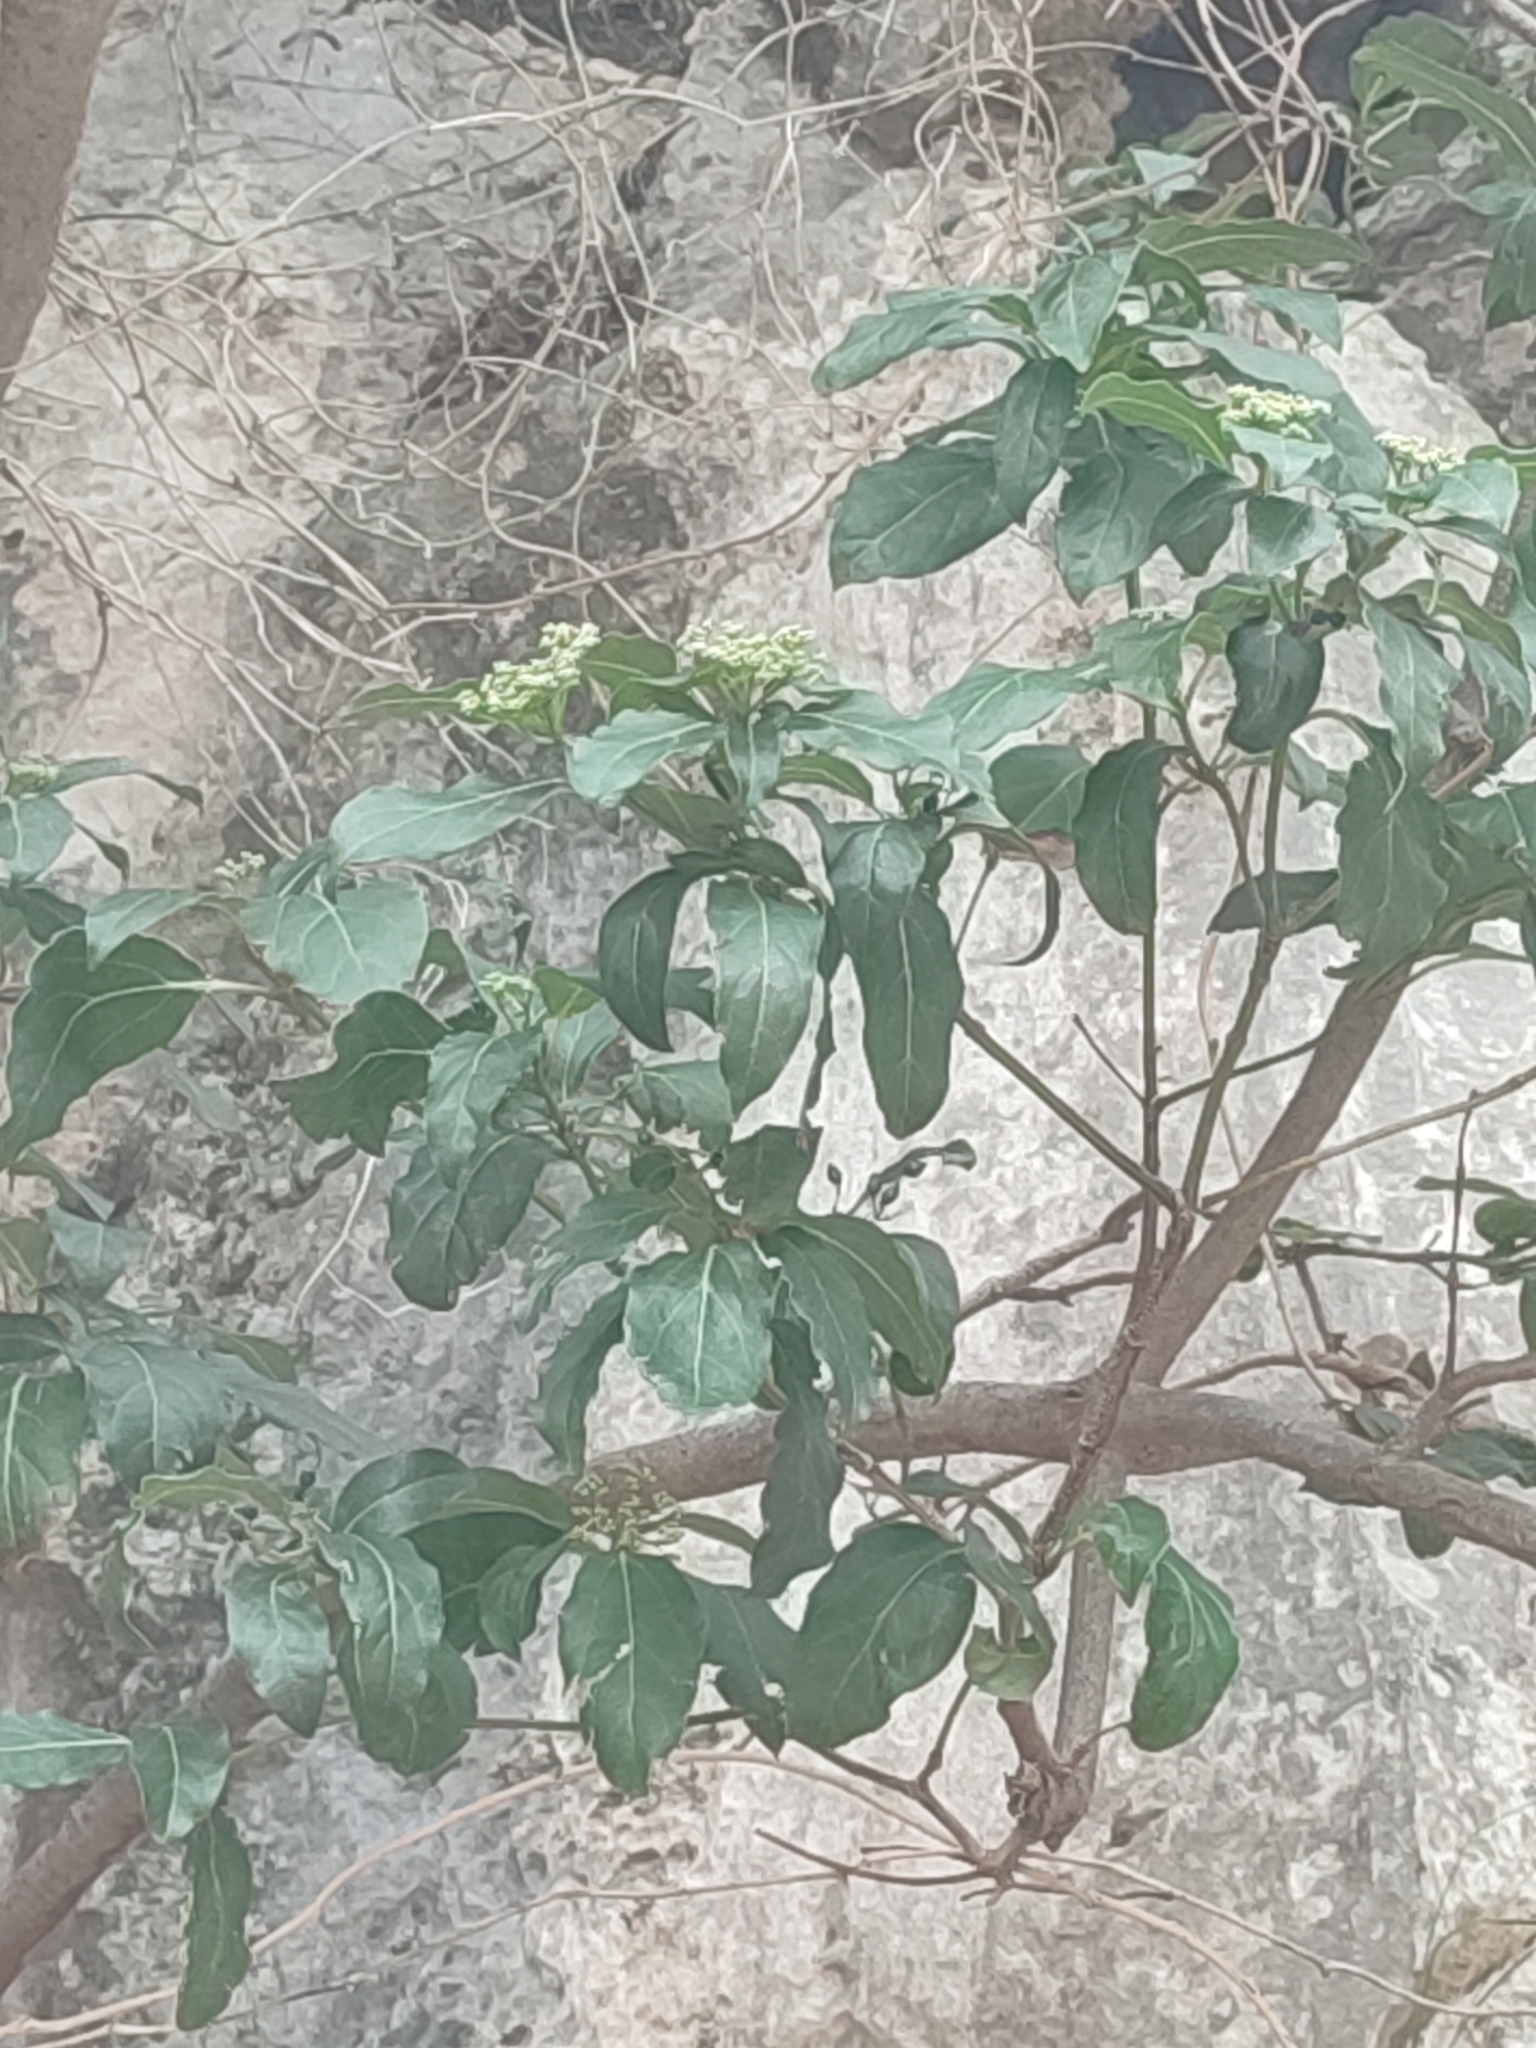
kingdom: Plantae
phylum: Tracheophyta
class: Magnoliopsida
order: Dipsacales
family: Viburnaceae
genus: Viburnum
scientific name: Viburnum tinus
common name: Laurustinus
